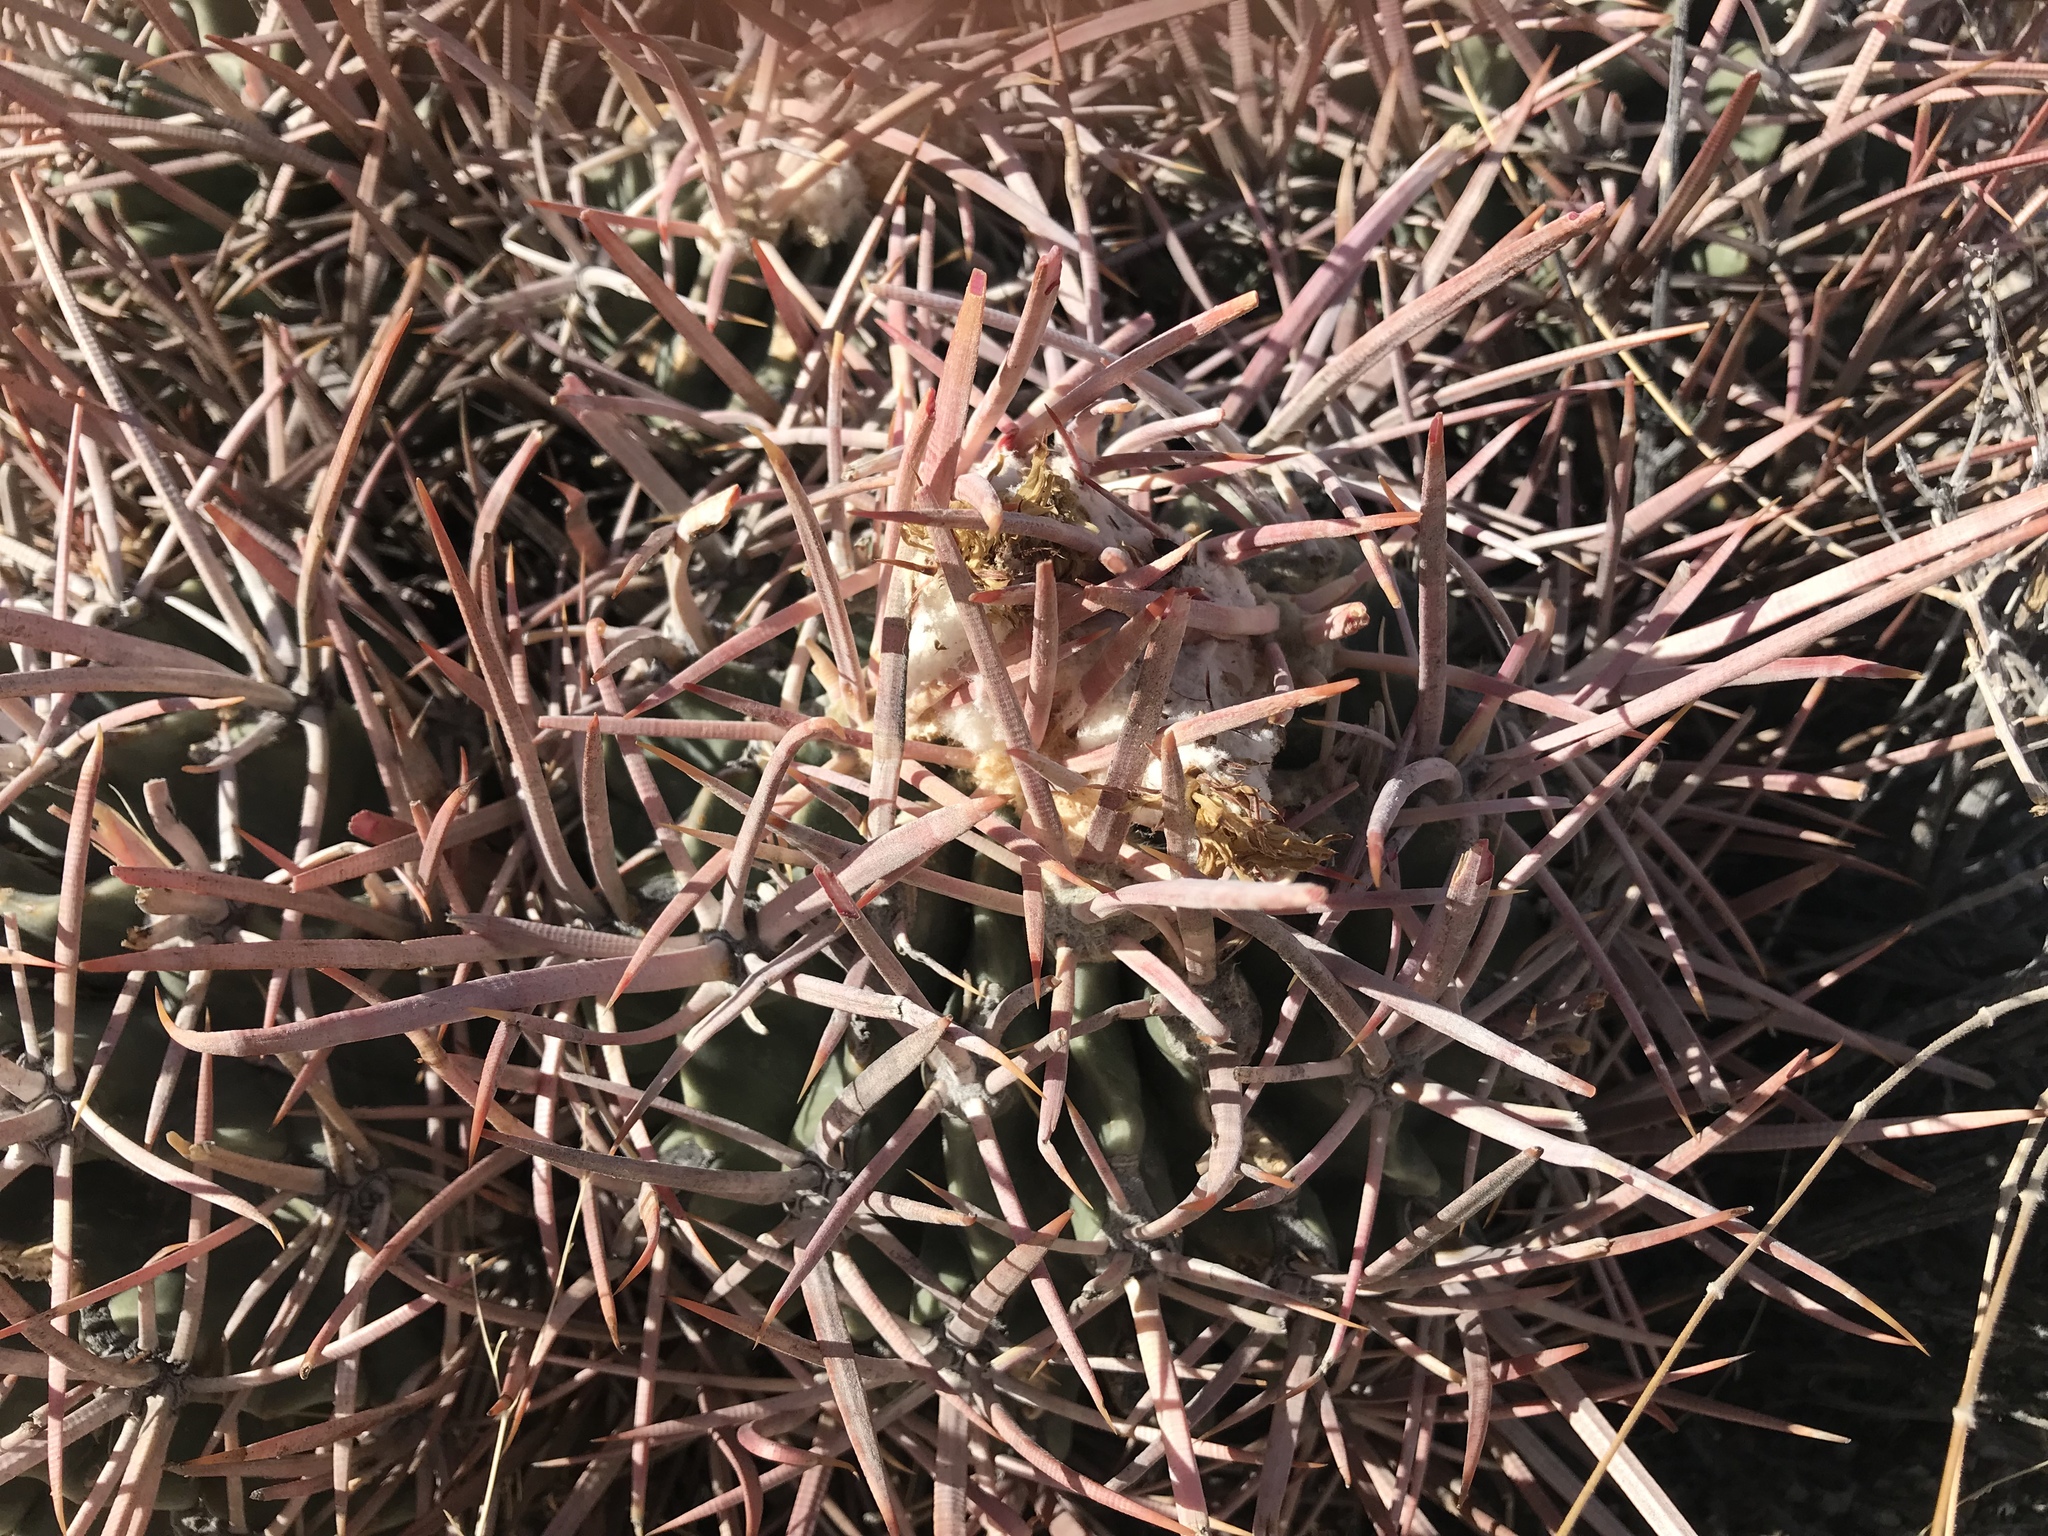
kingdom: Plantae
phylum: Tracheophyta
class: Magnoliopsida
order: Caryophyllales
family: Cactaceae
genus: Echinocactus
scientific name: Echinocactus polycephalus
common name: Cottontop cactus
